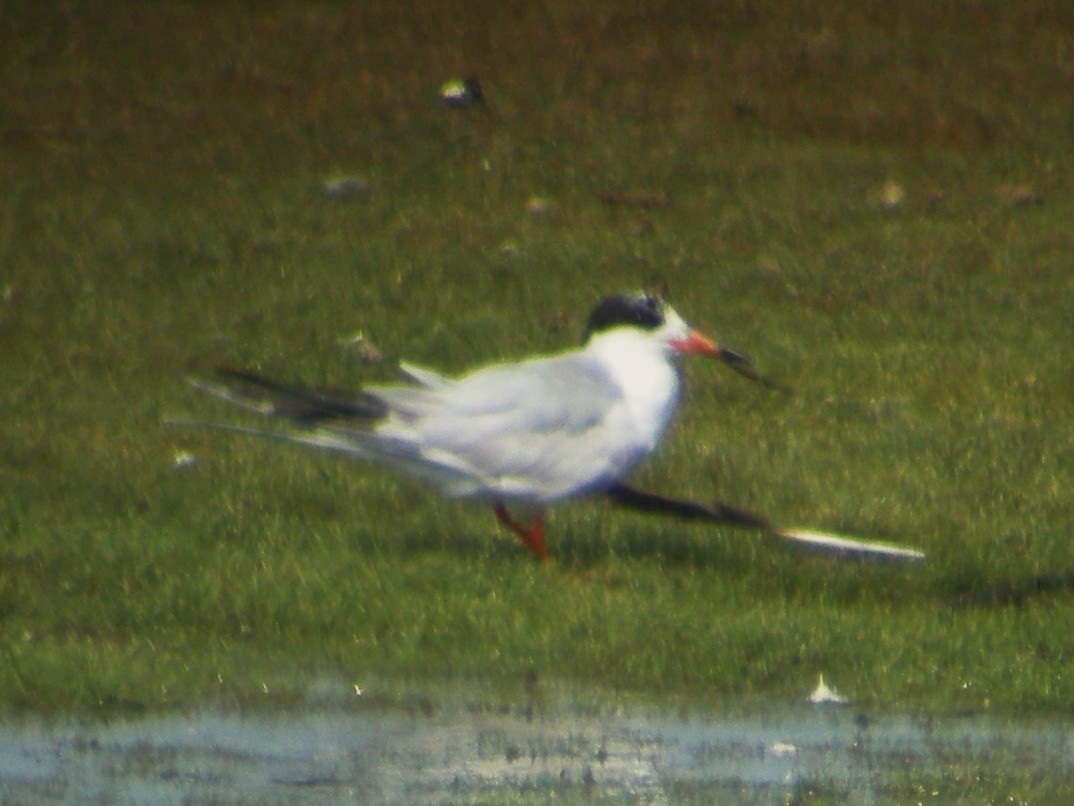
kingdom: Animalia
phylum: Chordata
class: Aves
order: Charadriiformes
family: Laridae
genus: Sterna
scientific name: Sterna forsteri
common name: Forster's tern
